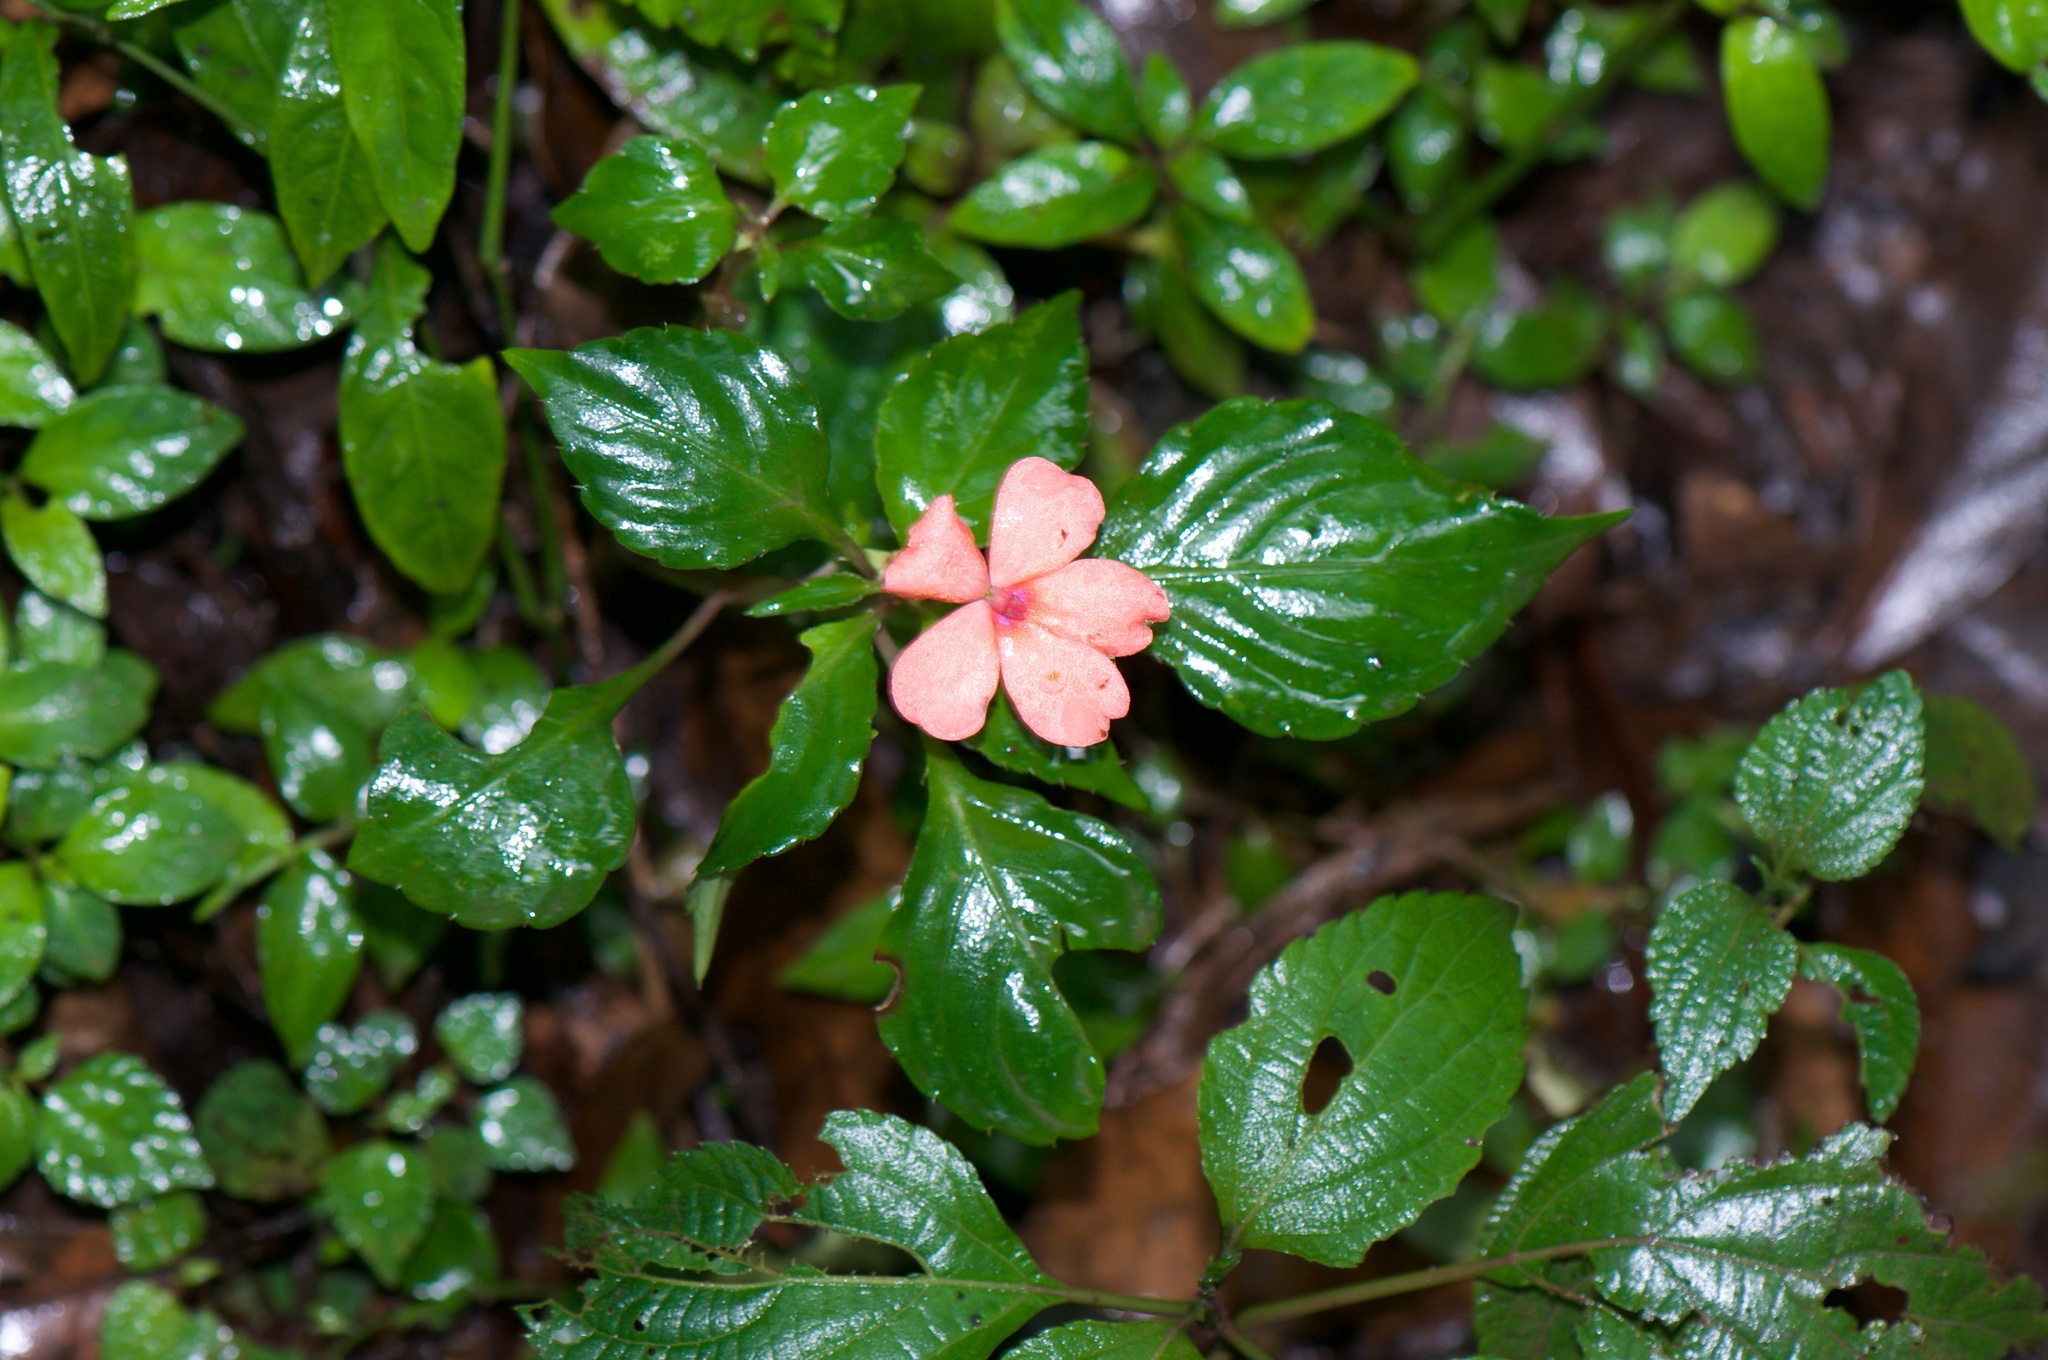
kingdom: Plantae
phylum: Tracheophyta
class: Magnoliopsida
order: Ericales
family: Balsaminaceae
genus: Impatiens
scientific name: Impatiens walleriana
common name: Buzzy lizzy
